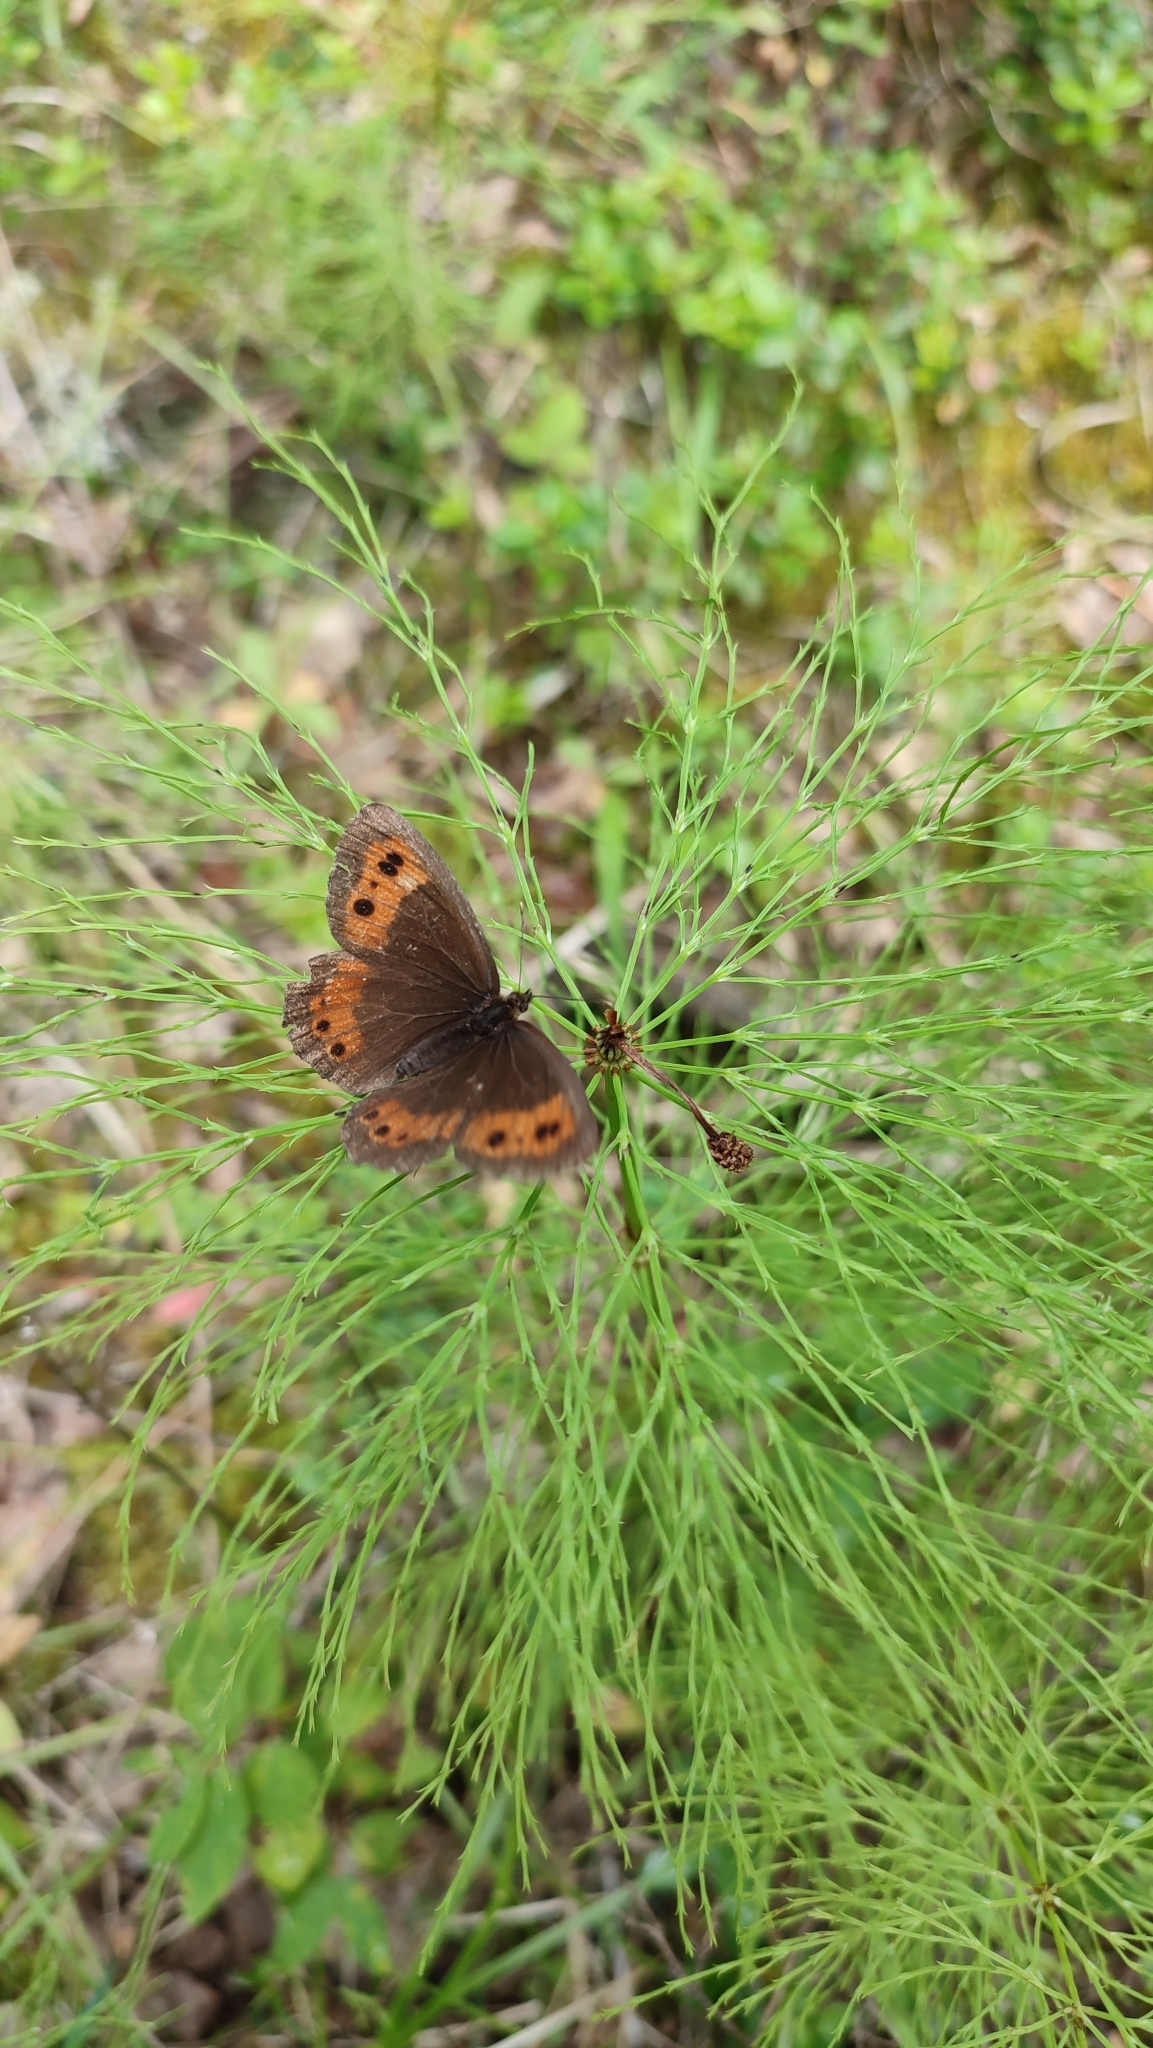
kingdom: Animalia
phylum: Arthropoda
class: Insecta
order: Lepidoptera
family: Nymphalidae
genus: Erebia
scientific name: Erebia ligea
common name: Arran brown
